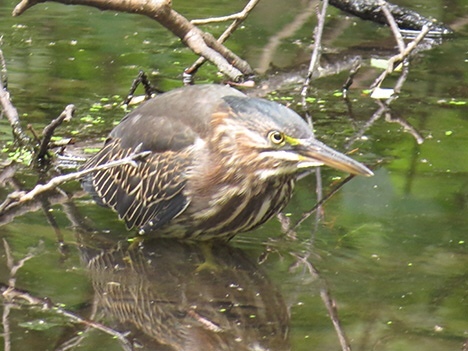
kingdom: Animalia
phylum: Chordata
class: Aves
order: Pelecaniformes
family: Ardeidae
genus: Butorides
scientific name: Butorides virescens
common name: Green heron
